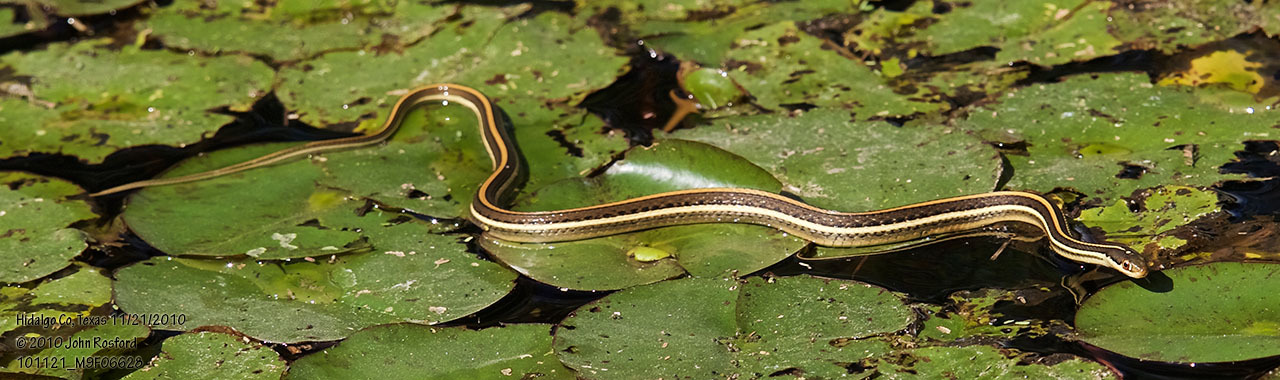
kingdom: Animalia
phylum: Chordata
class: Squamata
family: Colubridae
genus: Thamnophis
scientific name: Thamnophis proximus
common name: Western ribbon snake
